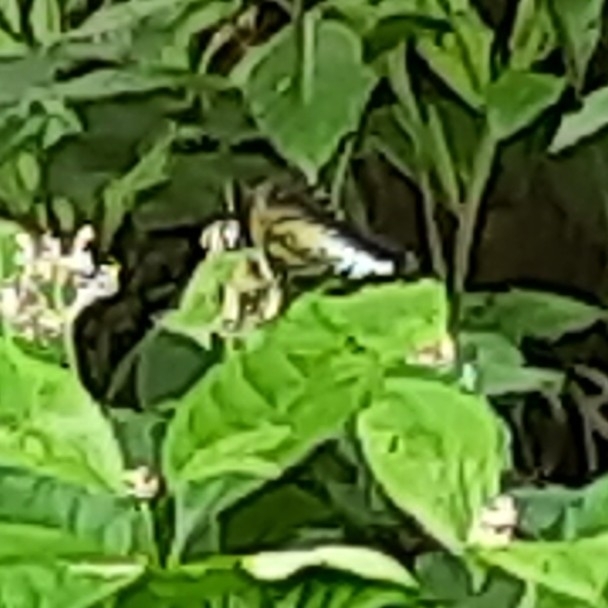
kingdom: Animalia
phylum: Arthropoda
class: Insecta
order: Lepidoptera
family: Nymphalidae
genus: Kallima
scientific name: Kallima sylvia
